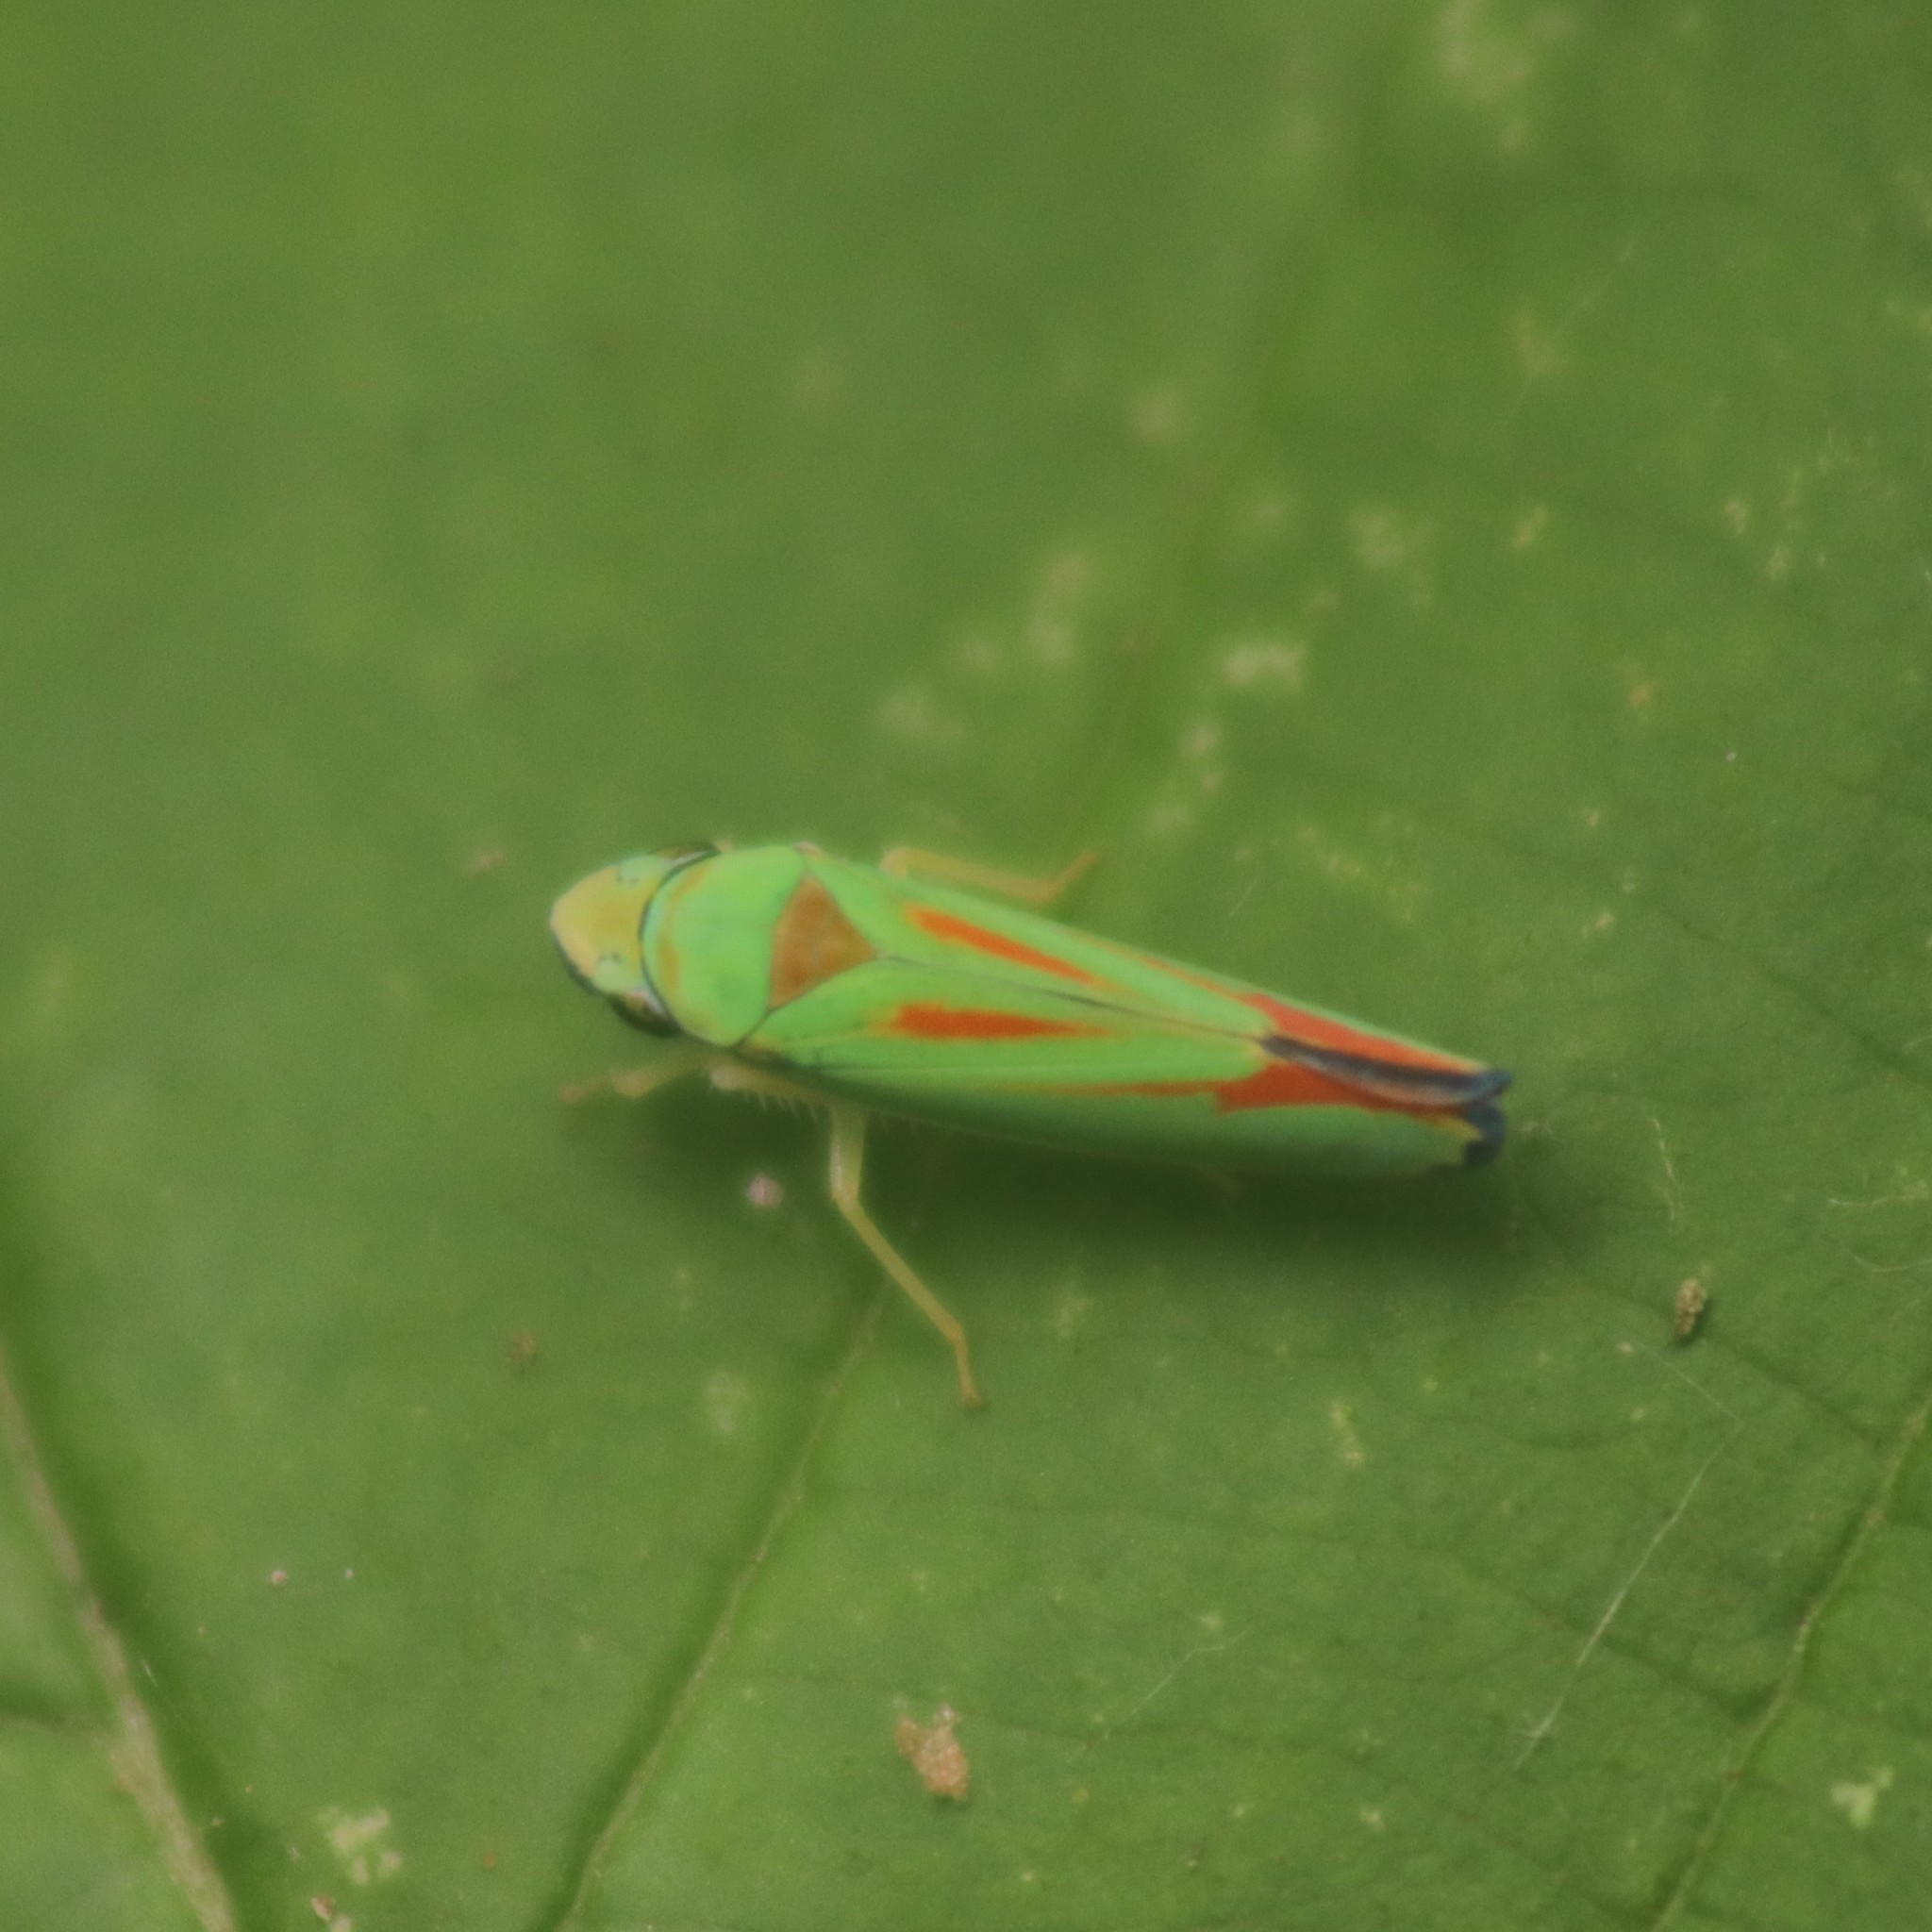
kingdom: Animalia
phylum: Arthropoda
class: Insecta
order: Hemiptera
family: Cicadellidae
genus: Graphocephala
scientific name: Graphocephala fennahi
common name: Rhododendron leafhopper
